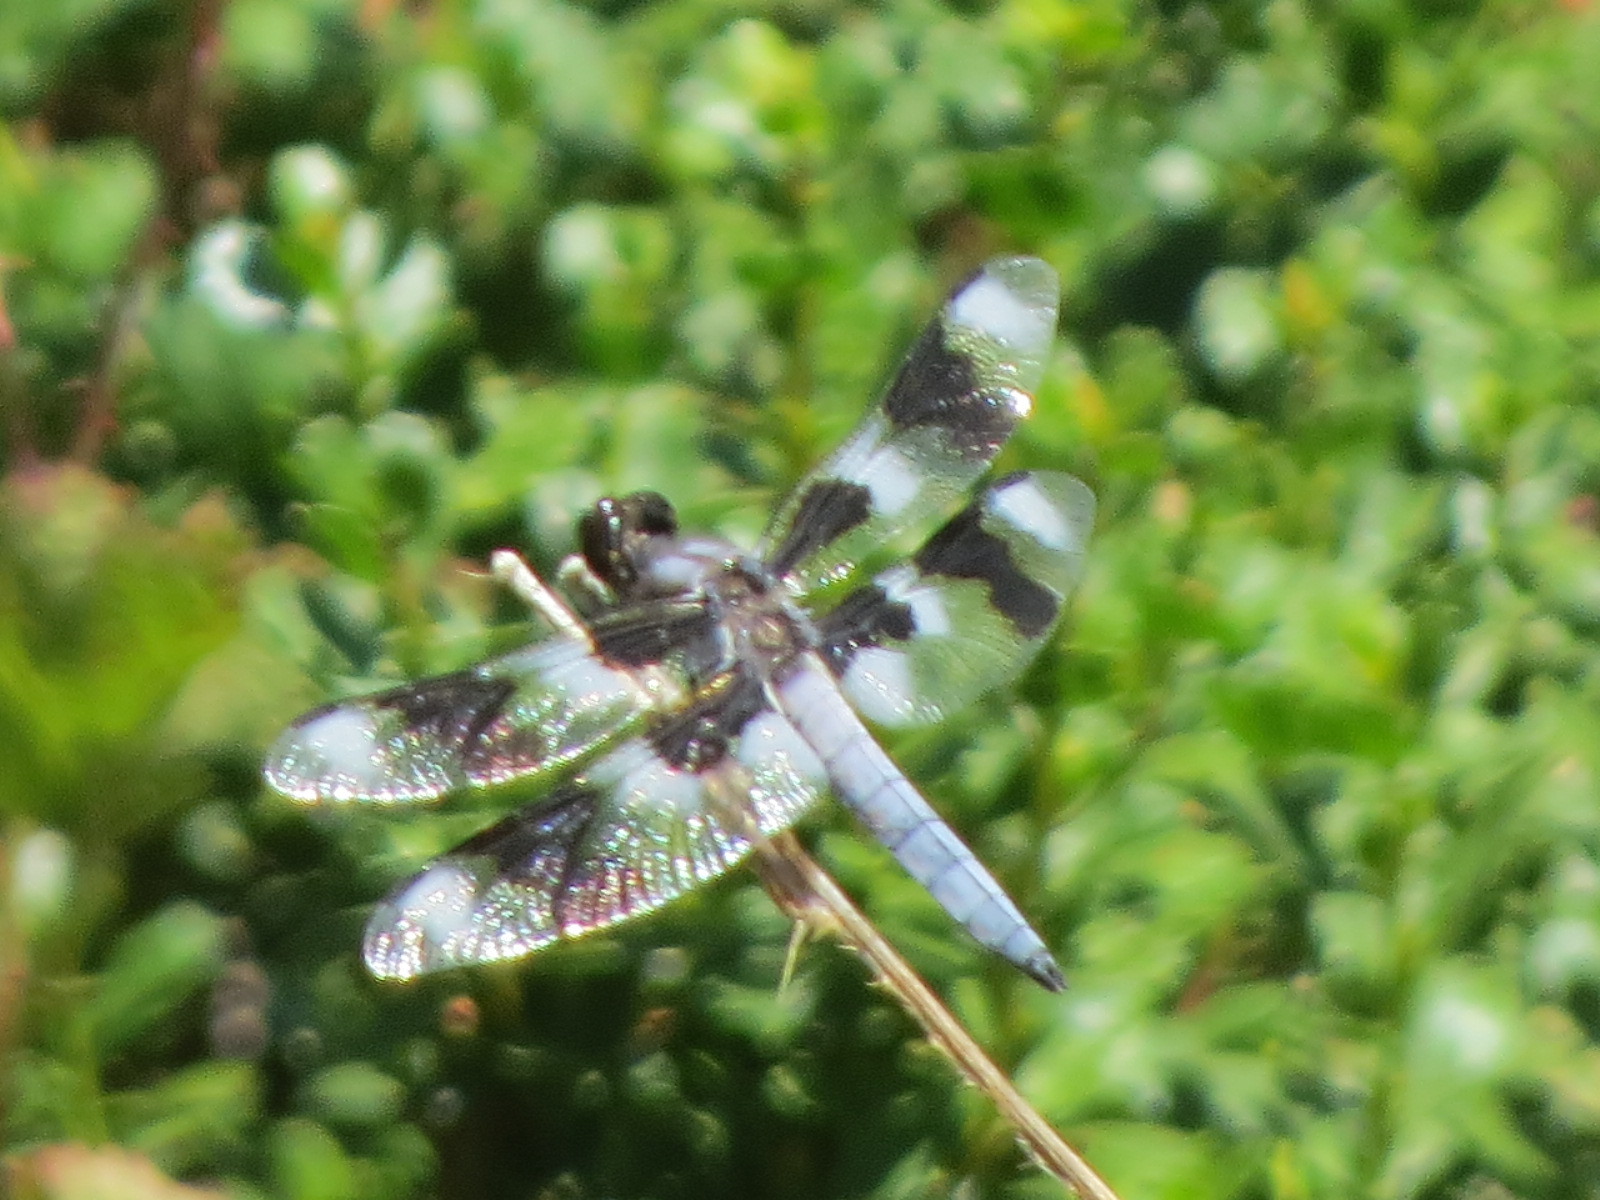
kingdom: Animalia
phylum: Arthropoda
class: Insecta
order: Odonata
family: Libellulidae
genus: Libellula
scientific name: Libellula forensis
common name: Eight-spotted skimmer
